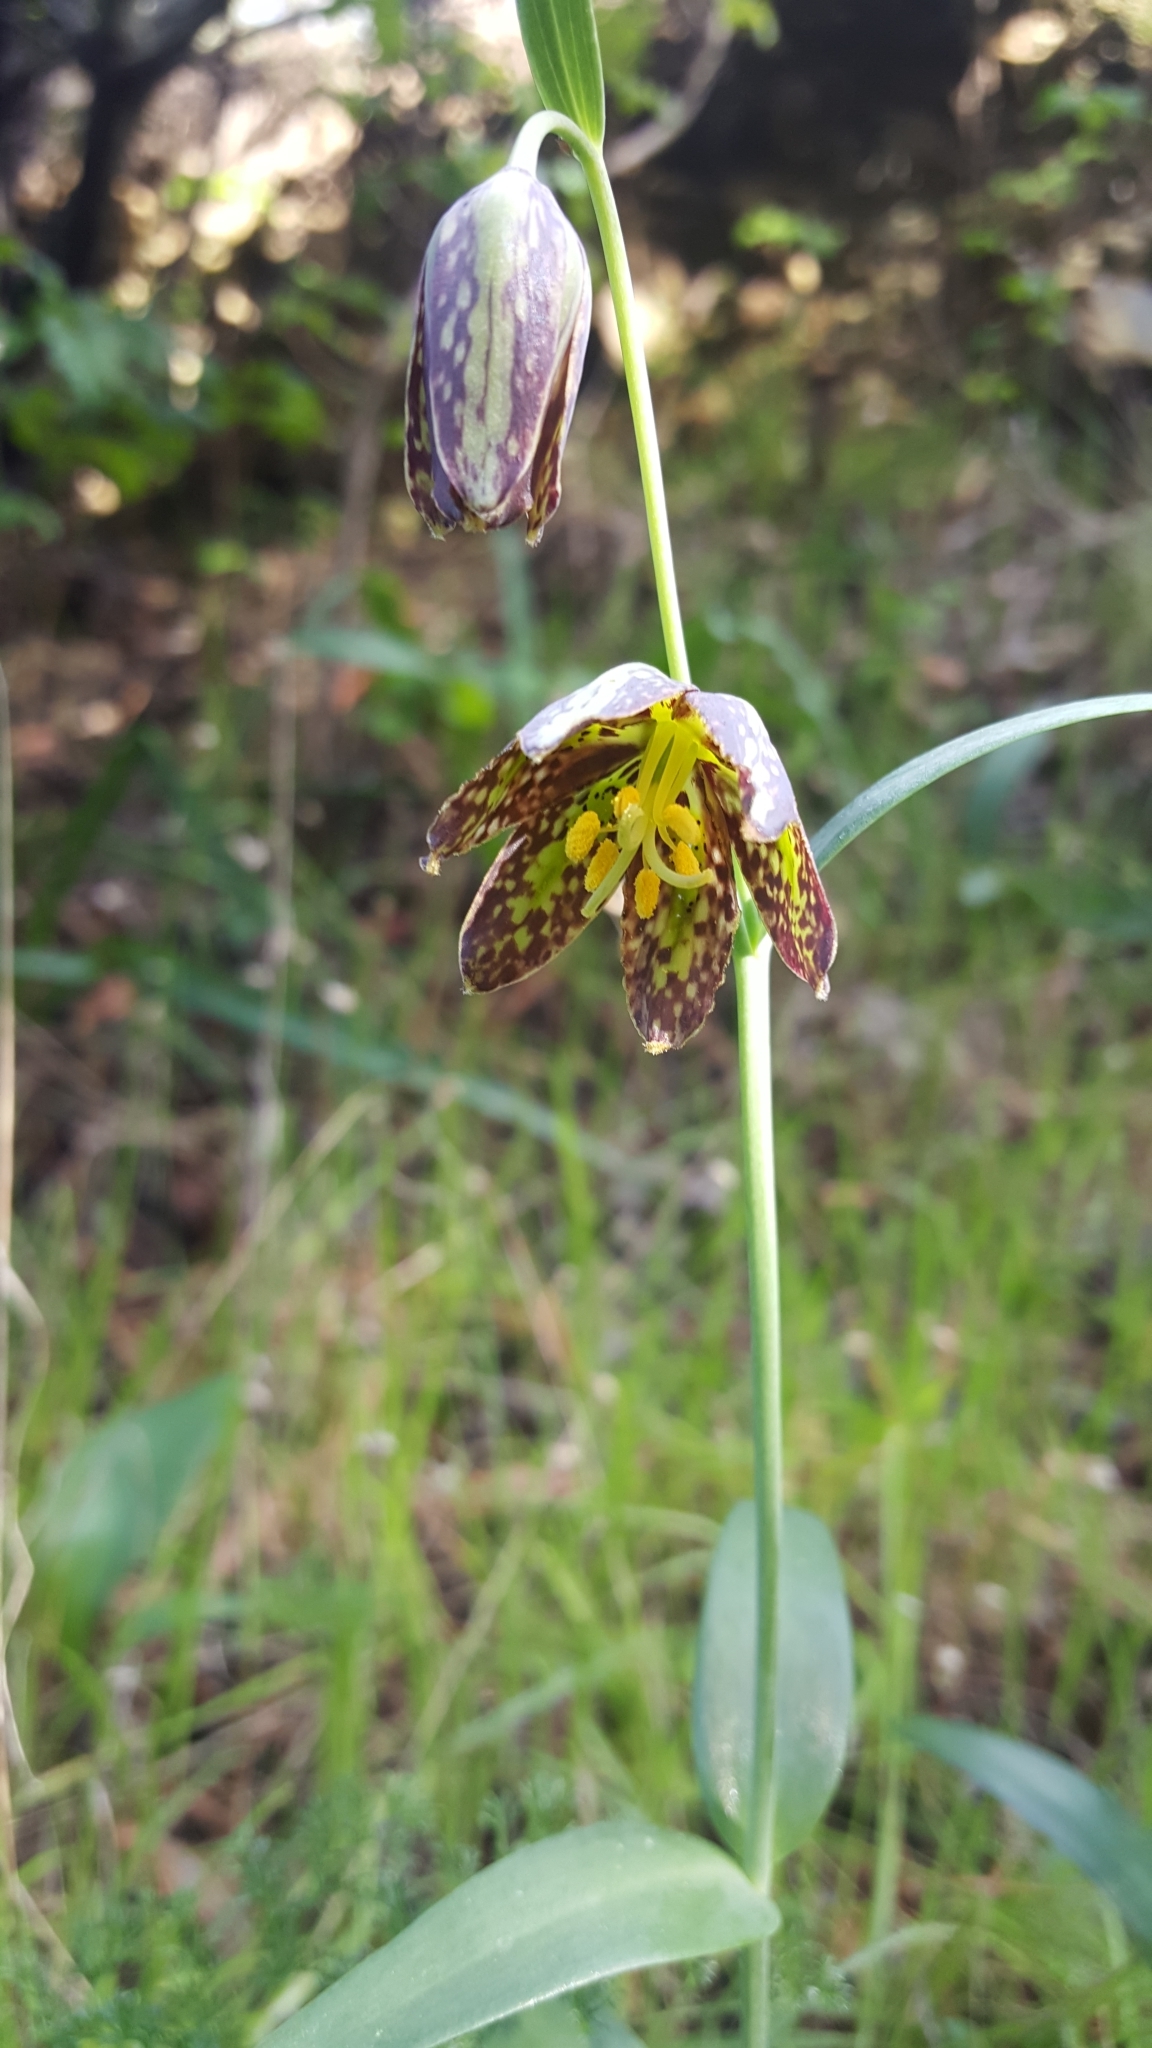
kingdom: Plantae
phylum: Tracheophyta
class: Liliopsida
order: Liliales
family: Liliaceae
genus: Fritillaria
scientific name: Fritillaria affinis
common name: Ojai fritillary
